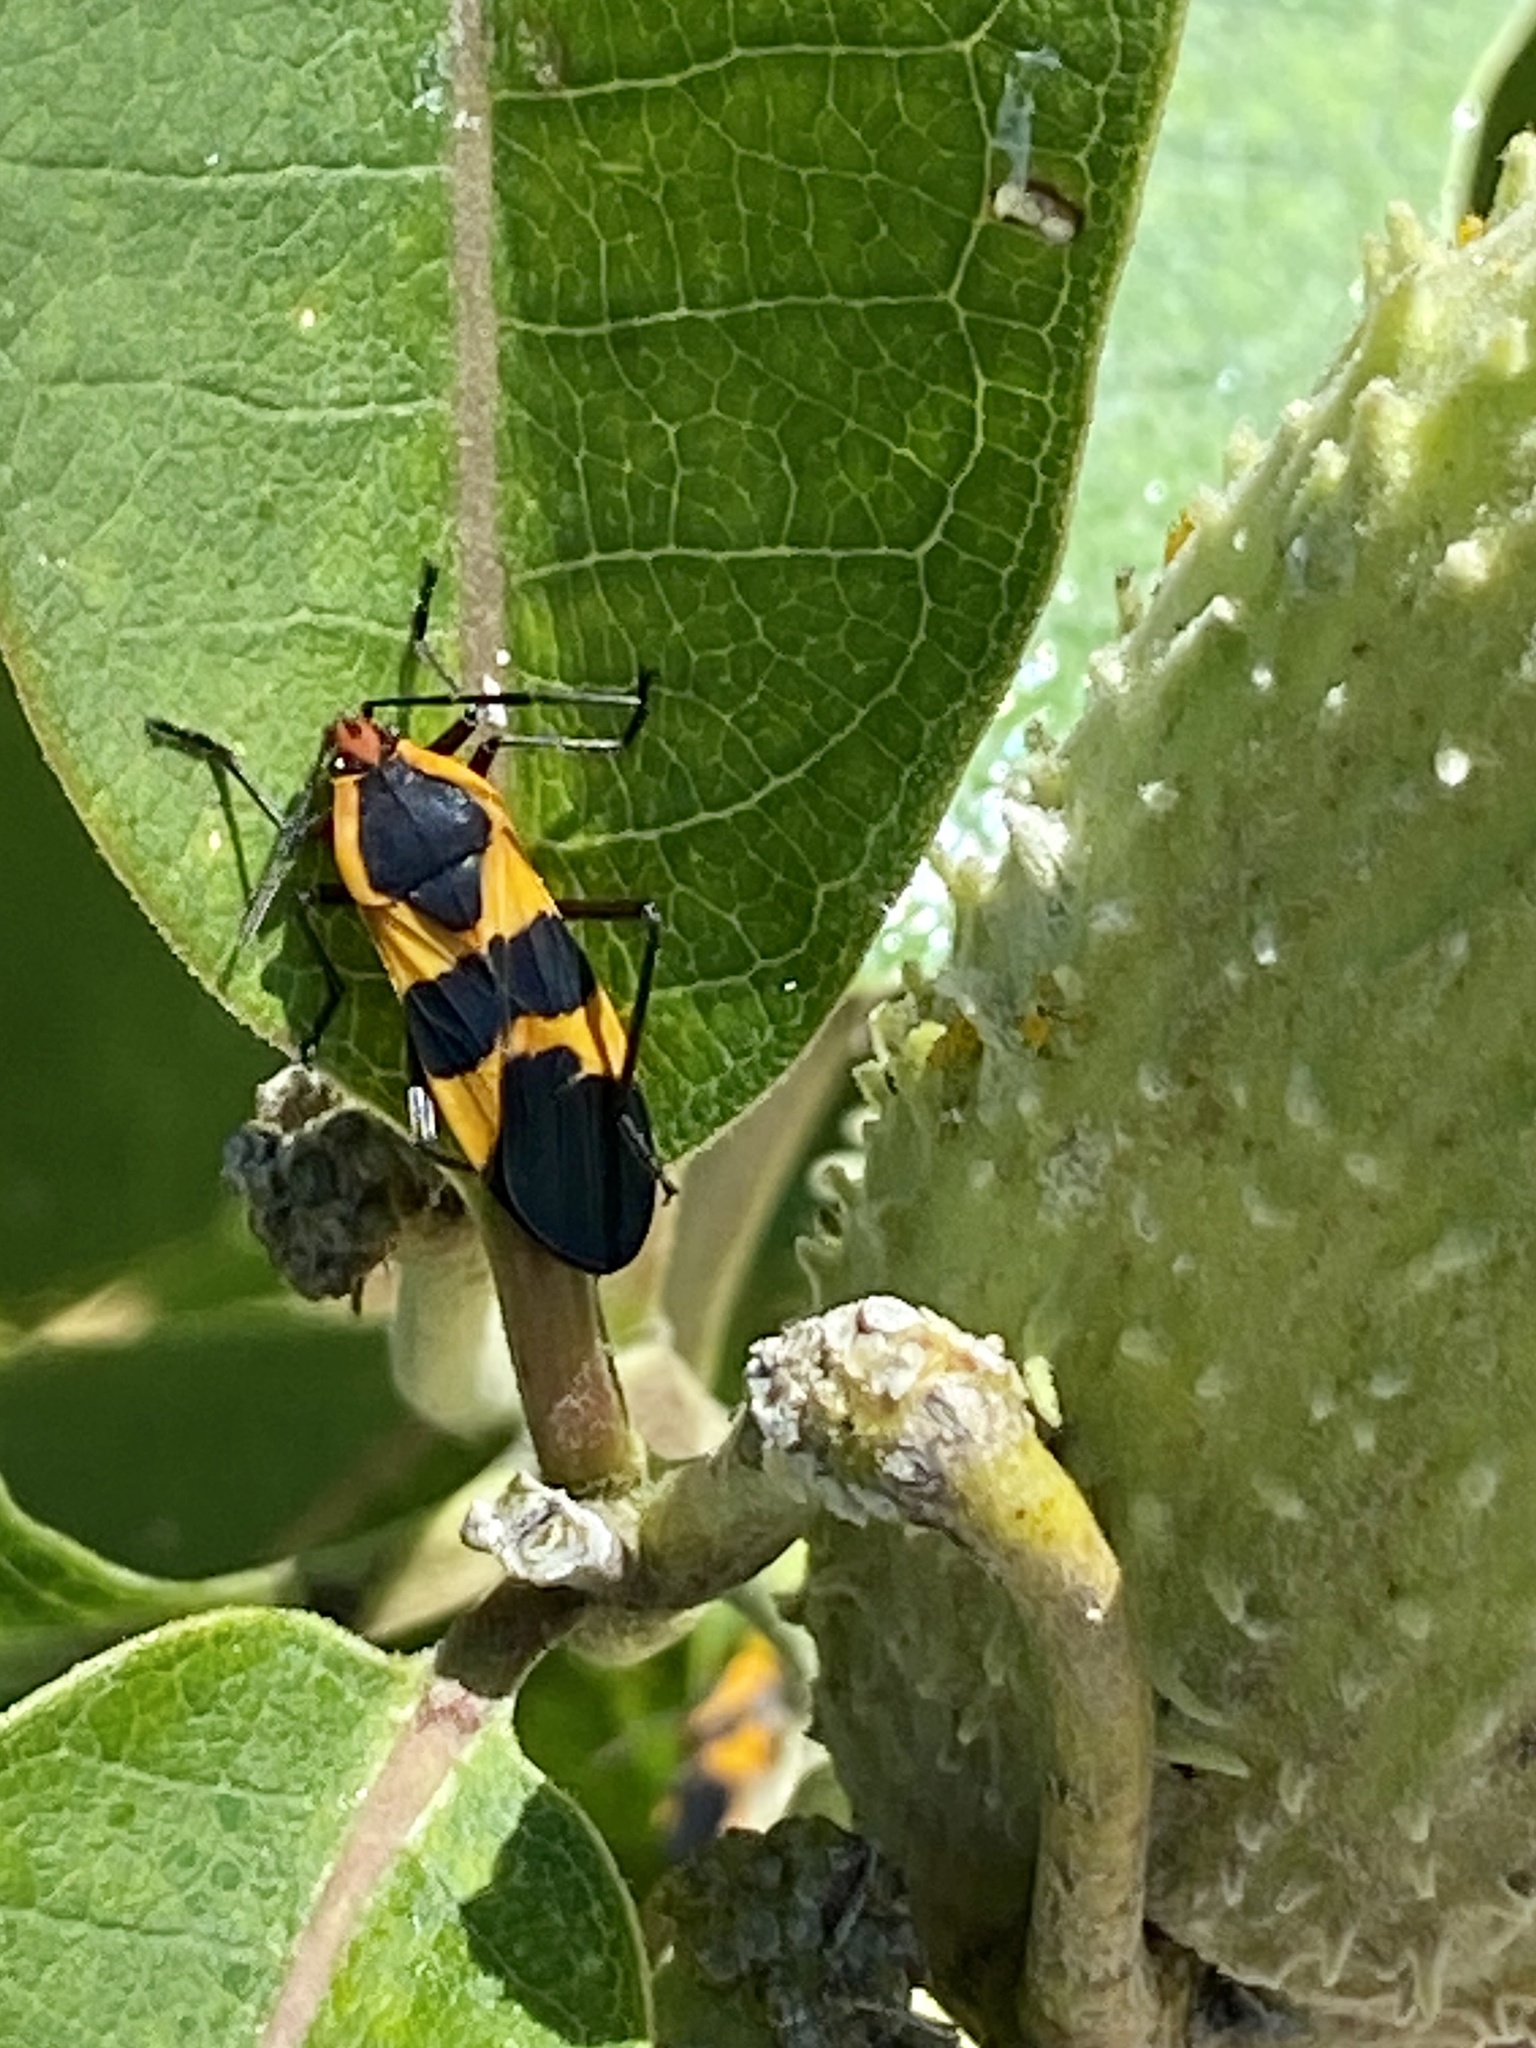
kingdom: Animalia
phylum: Arthropoda
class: Insecta
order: Hemiptera
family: Lygaeidae
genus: Oncopeltus
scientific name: Oncopeltus fasciatus
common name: Large milkweed bug
